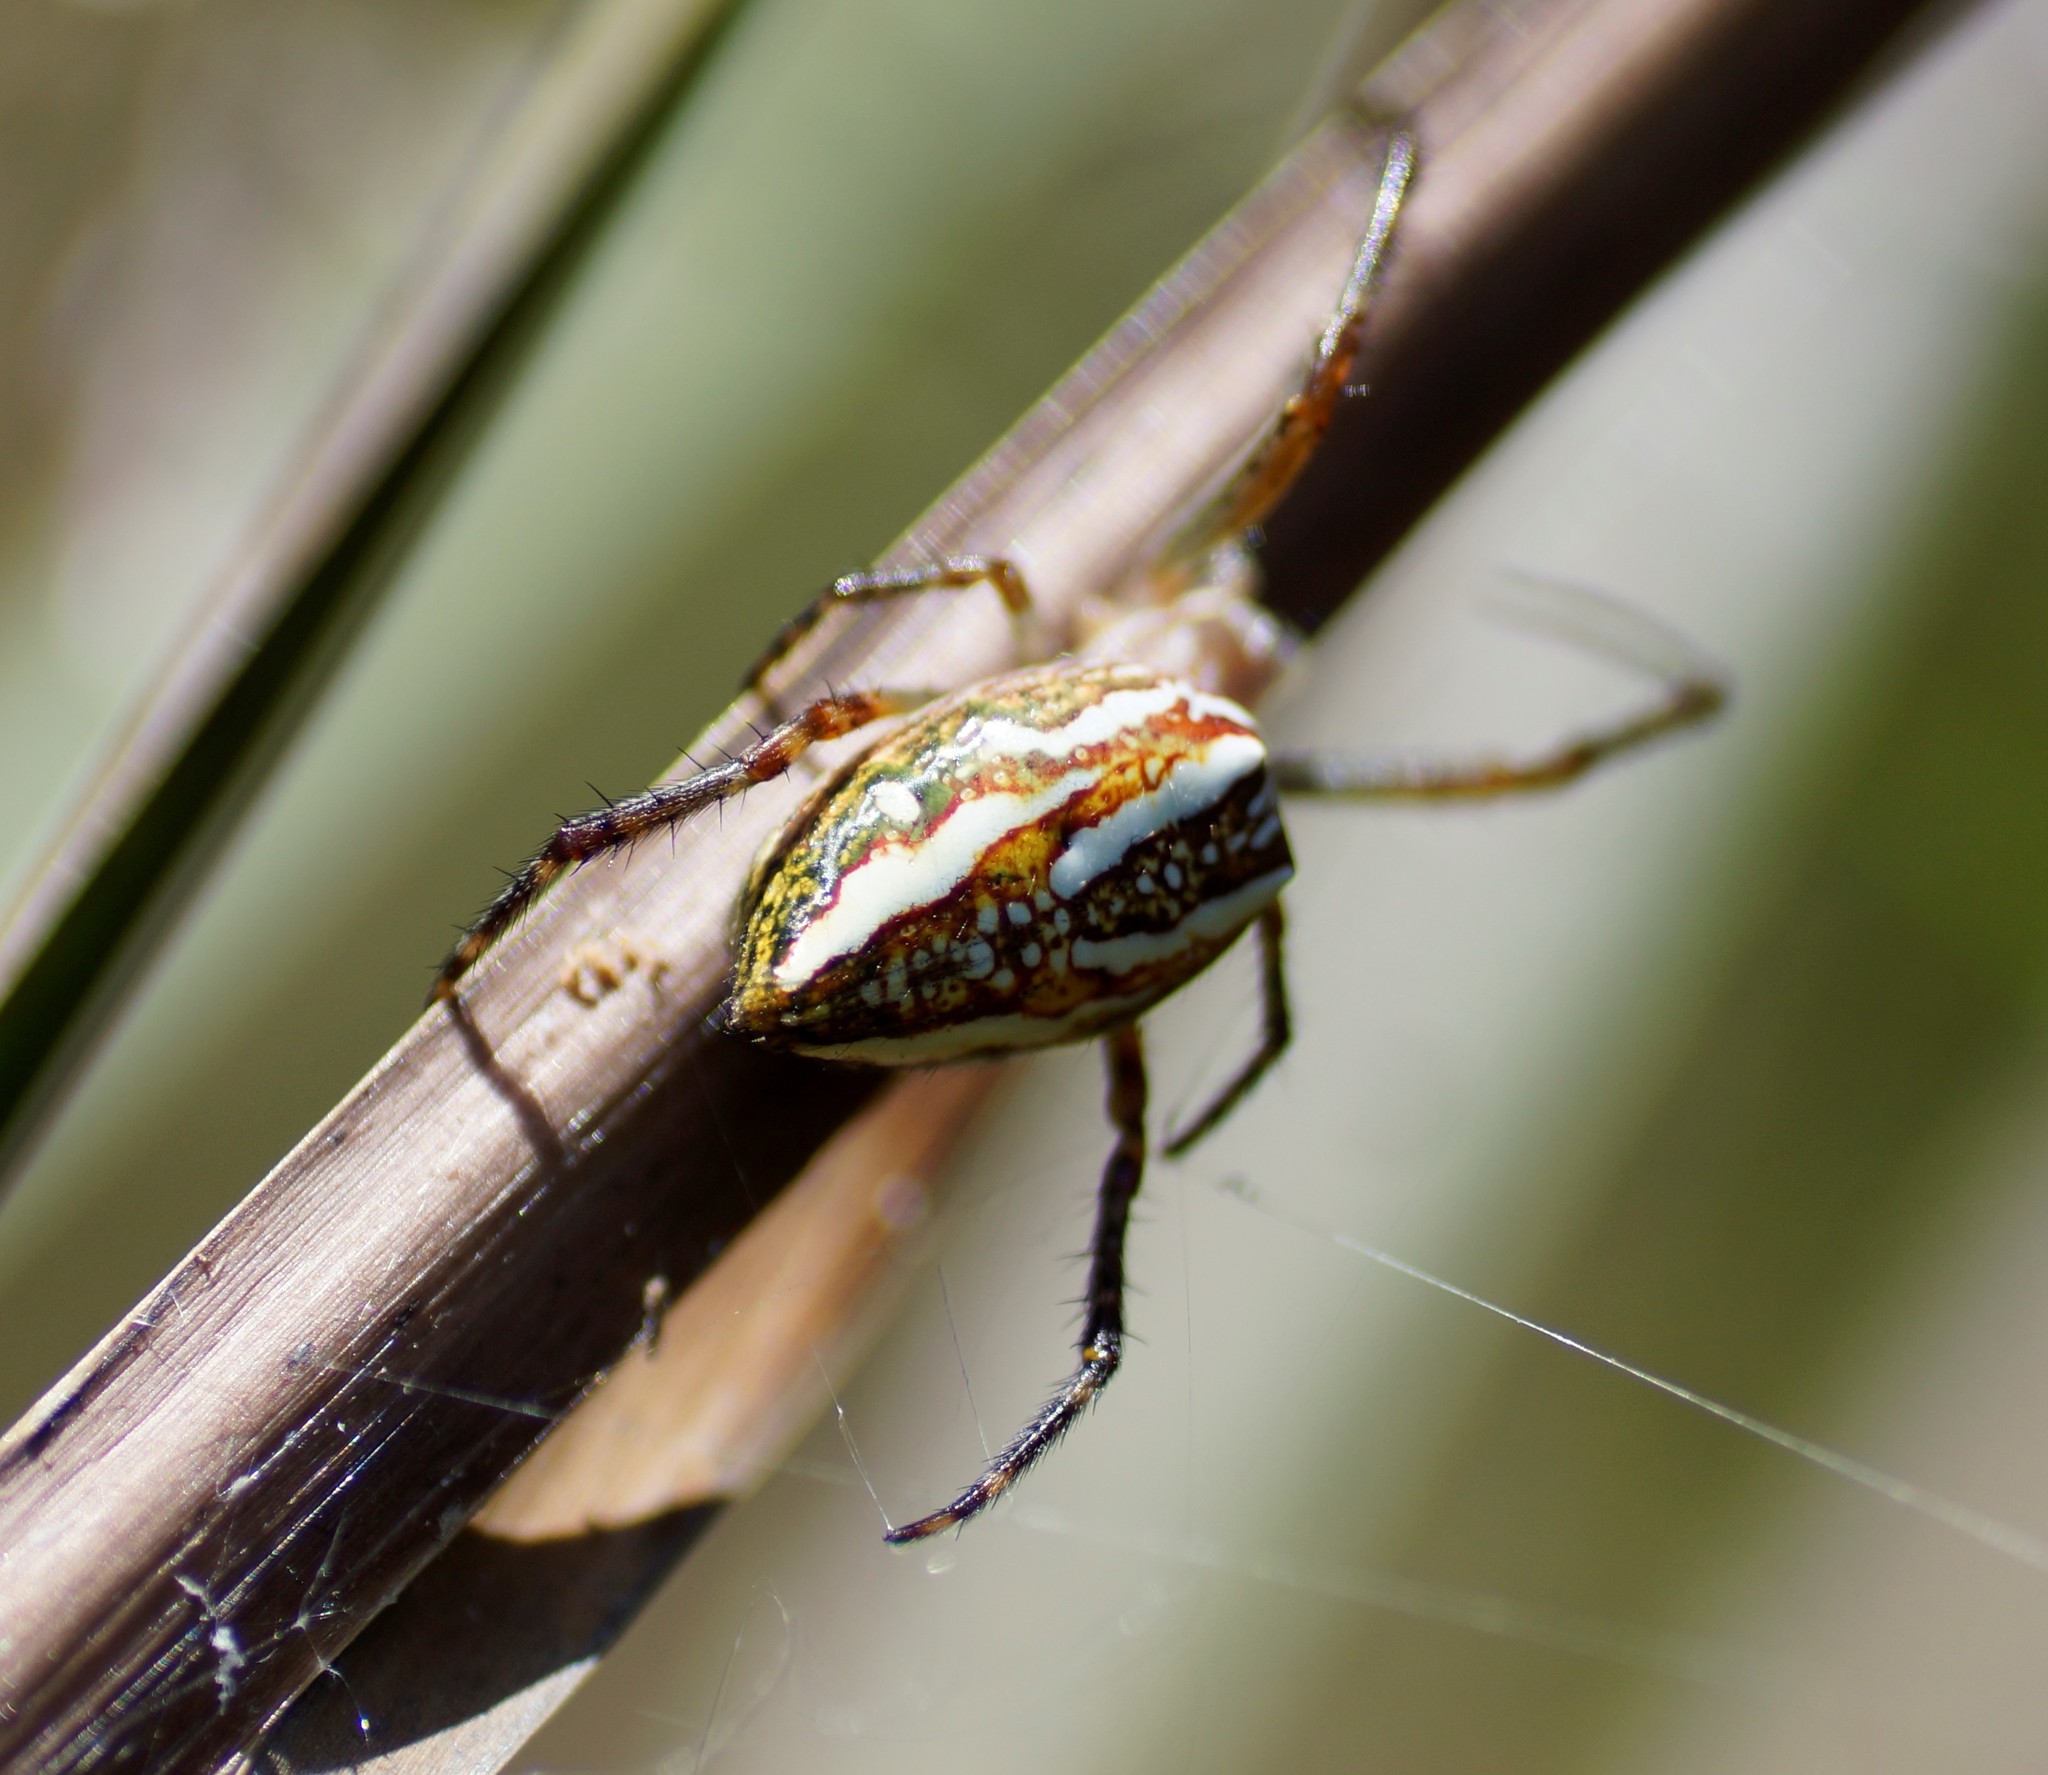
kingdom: Animalia
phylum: Arthropoda
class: Arachnida
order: Araneae
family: Araneidae
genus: Plebs
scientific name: Plebs bradleyi
